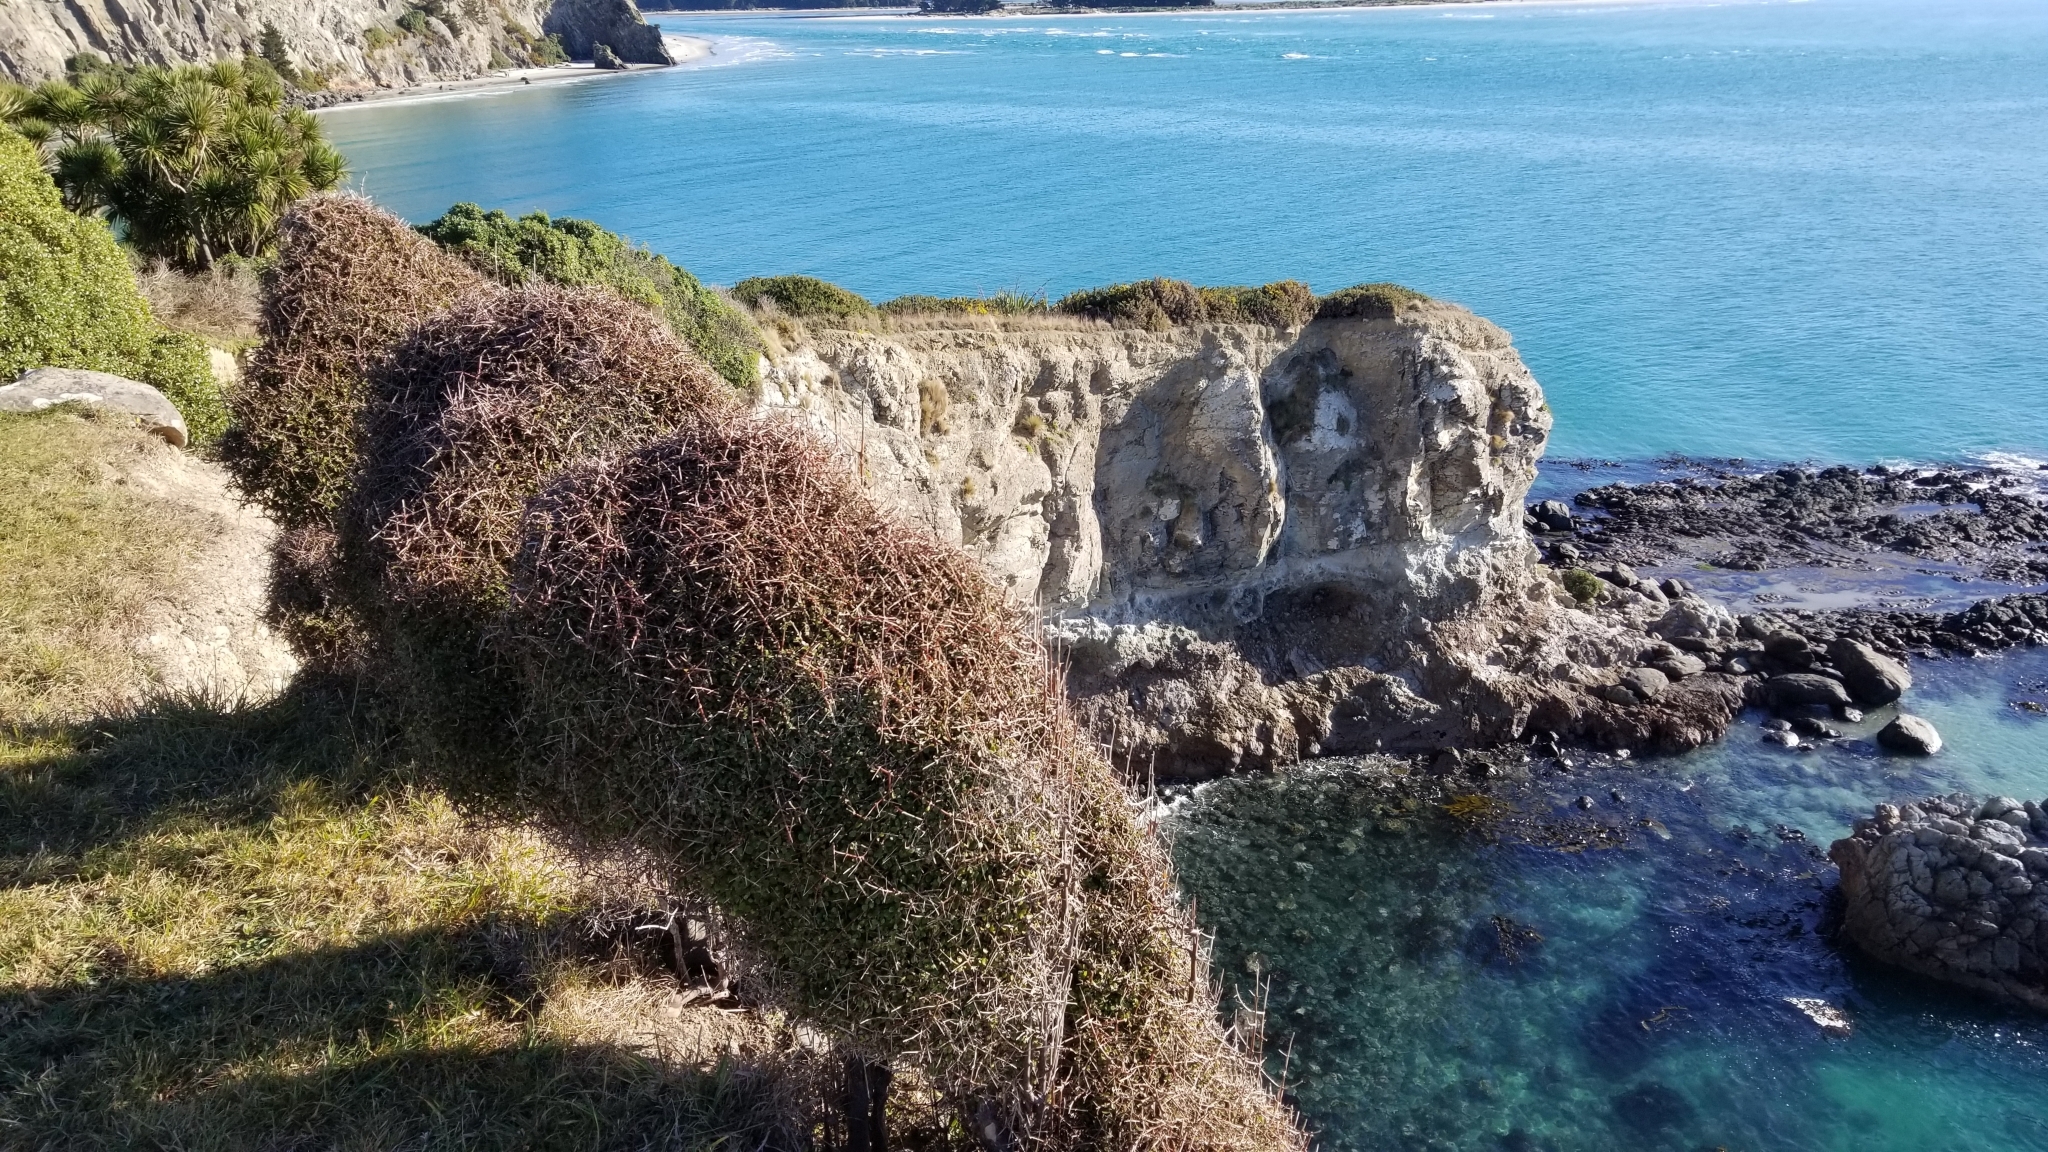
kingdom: Plantae
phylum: Tracheophyta
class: Magnoliopsida
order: Gentianales
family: Rubiaceae
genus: Coprosma
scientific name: Coprosma crassifolia
